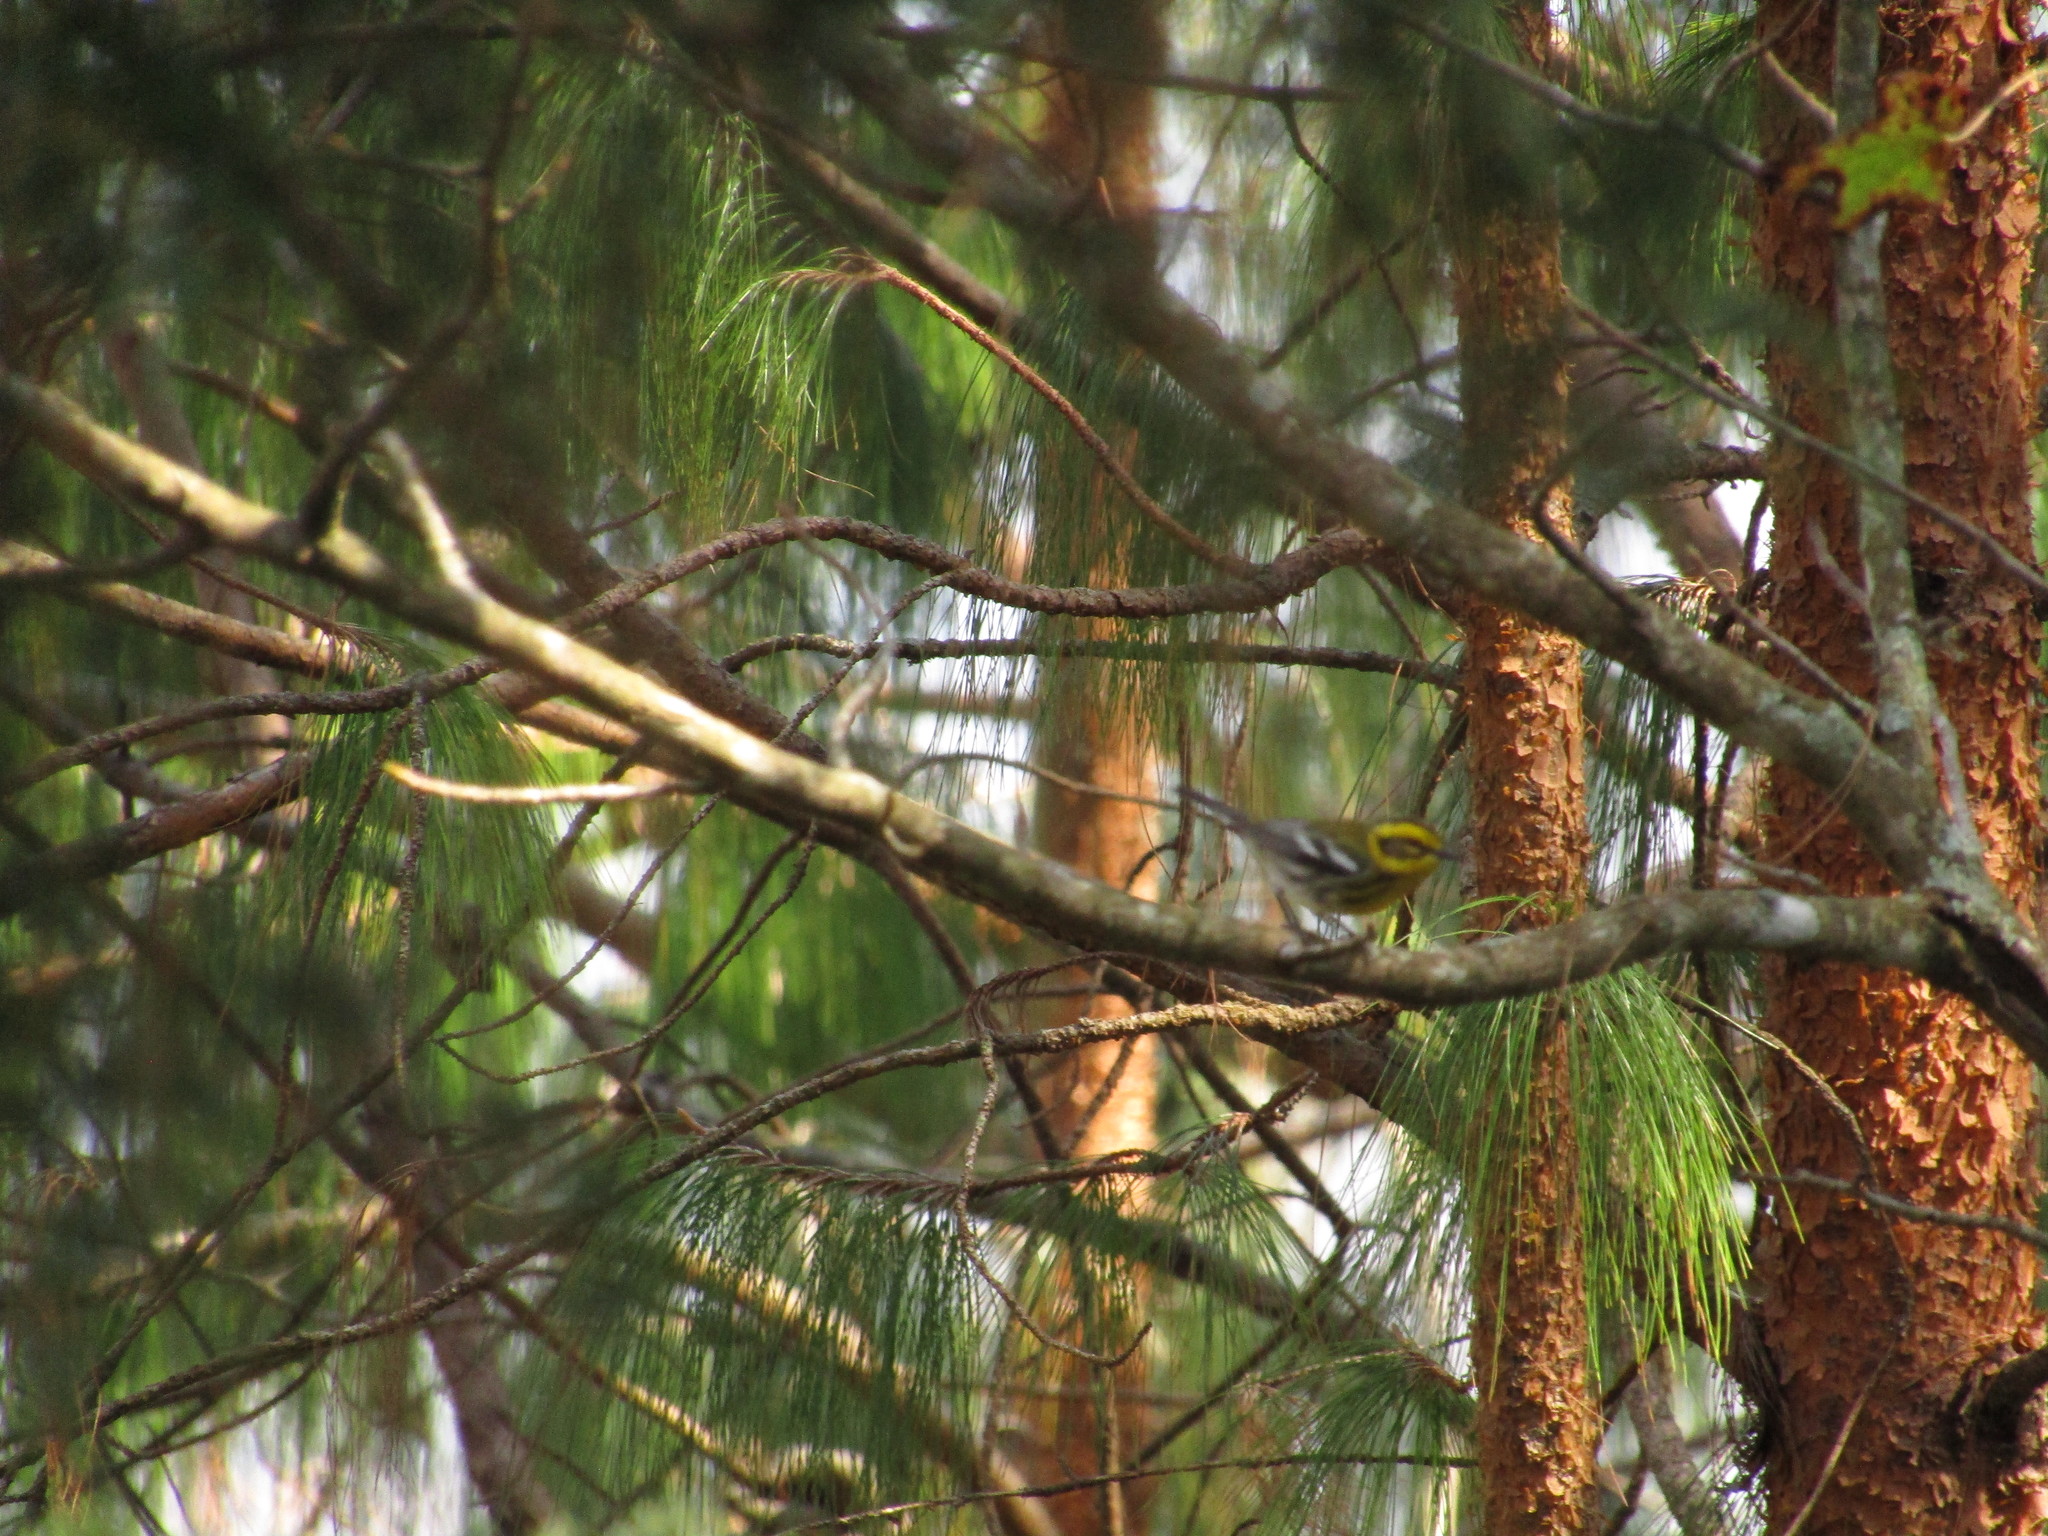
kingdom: Animalia
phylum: Chordata
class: Aves
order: Passeriformes
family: Parulidae
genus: Setophaga
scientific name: Setophaga townsendi
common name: Townsend's warbler
